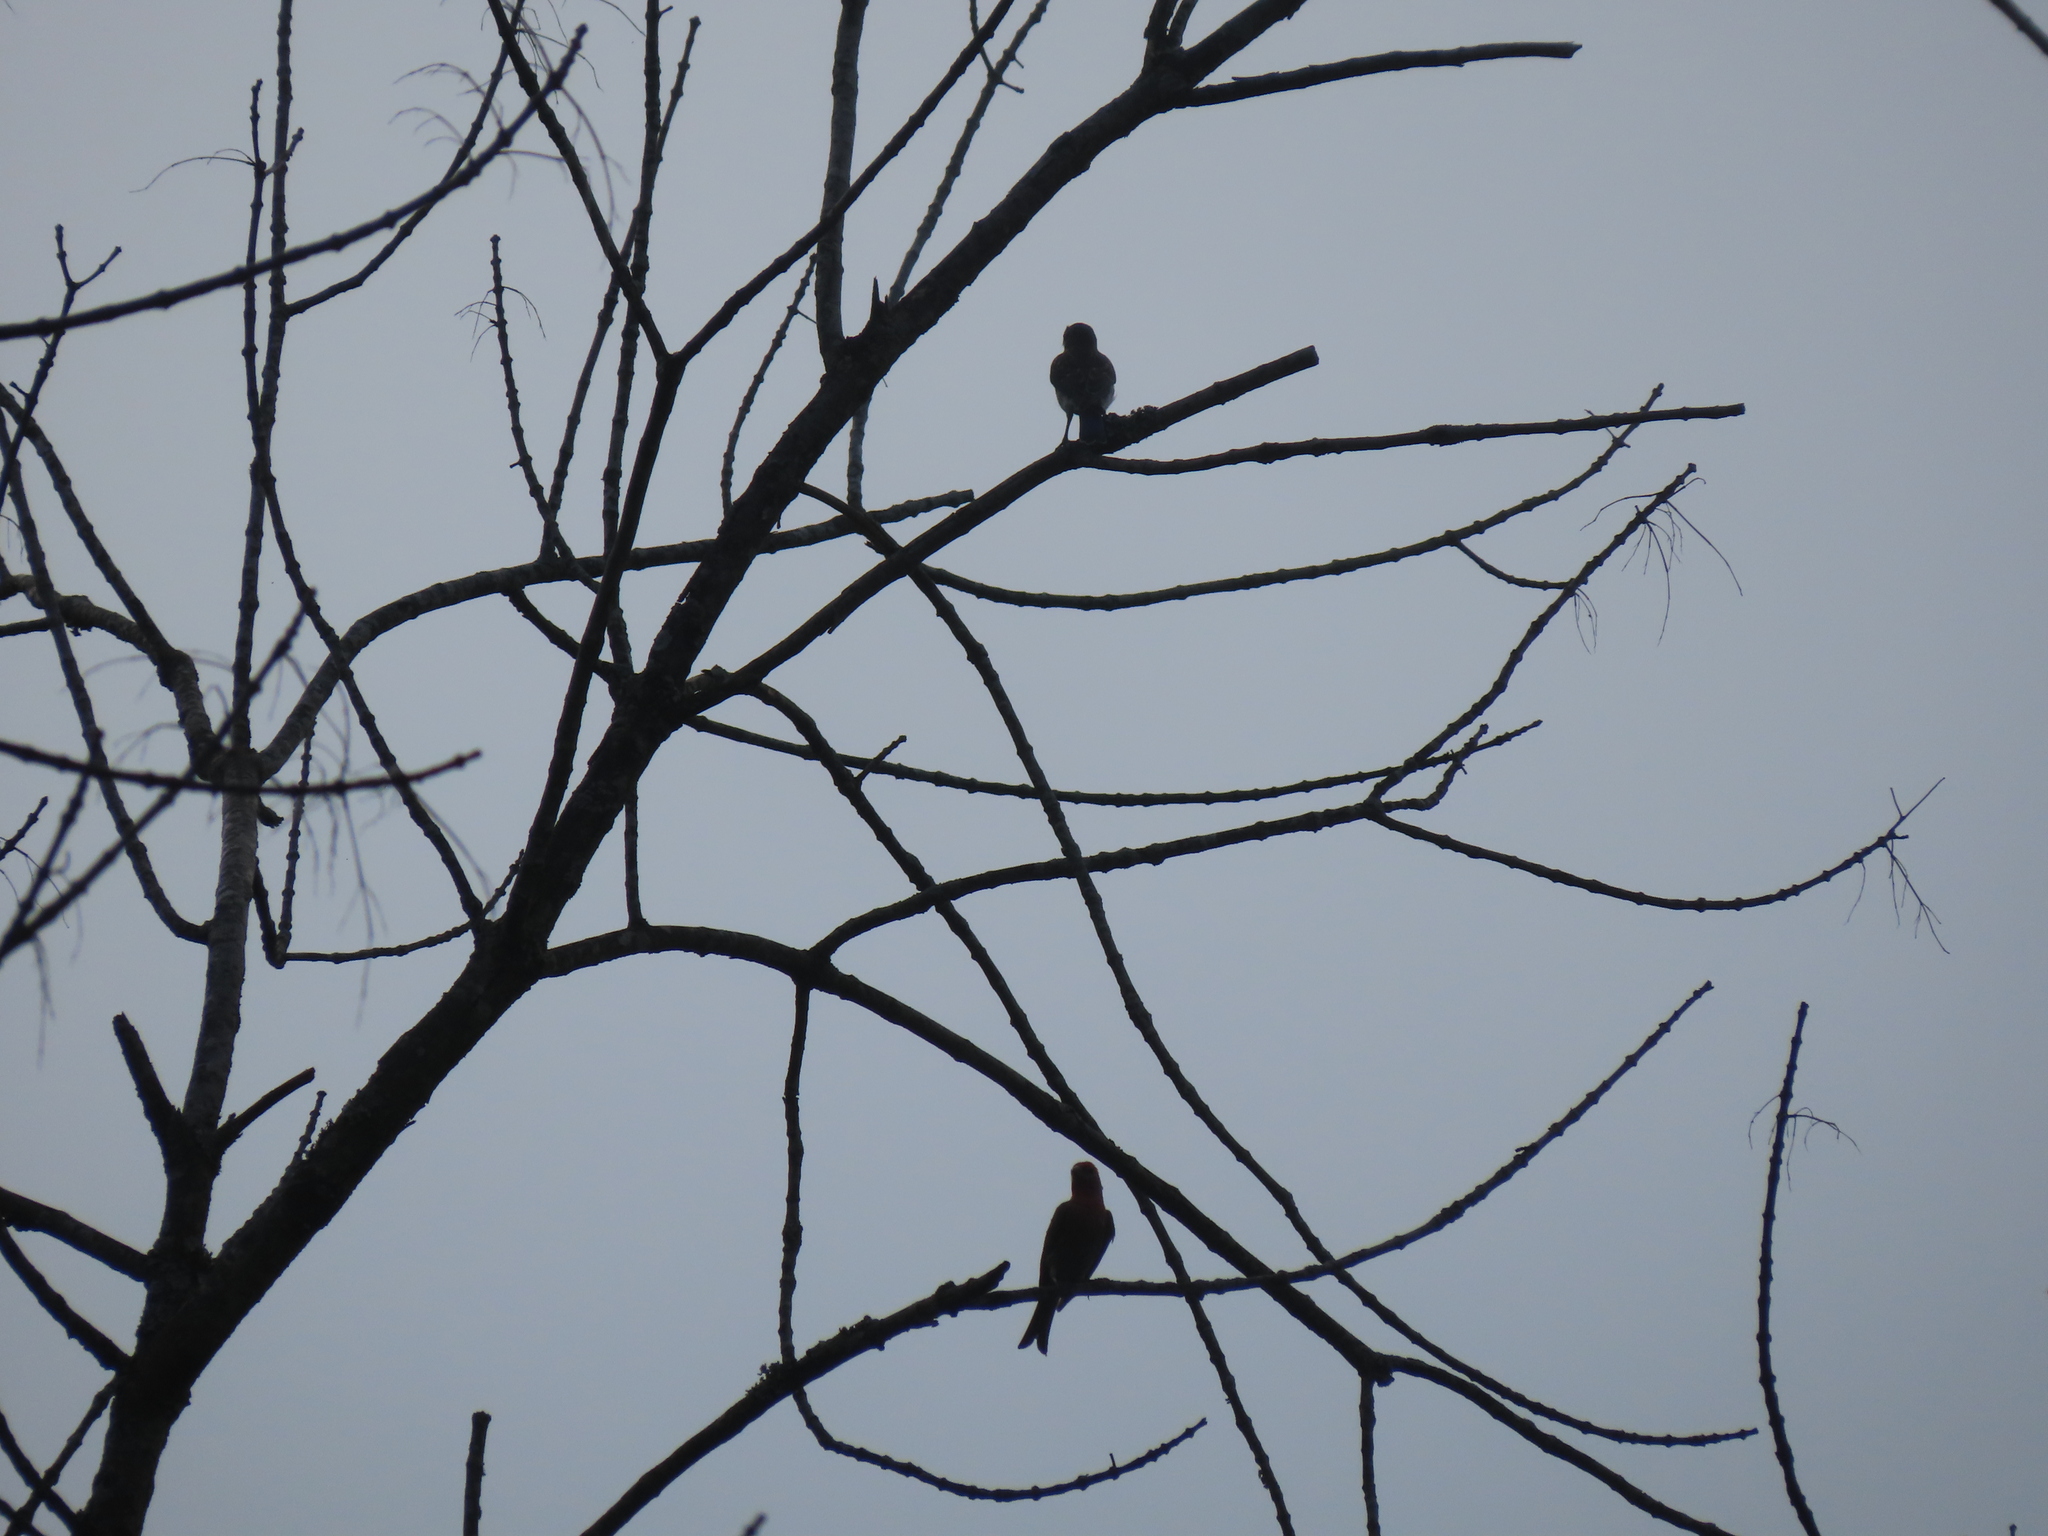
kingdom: Animalia
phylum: Chordata
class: Aves
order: Passeriformes
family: Turdidae
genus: Sialia
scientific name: Sialia sialis
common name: Eastern bluebird
